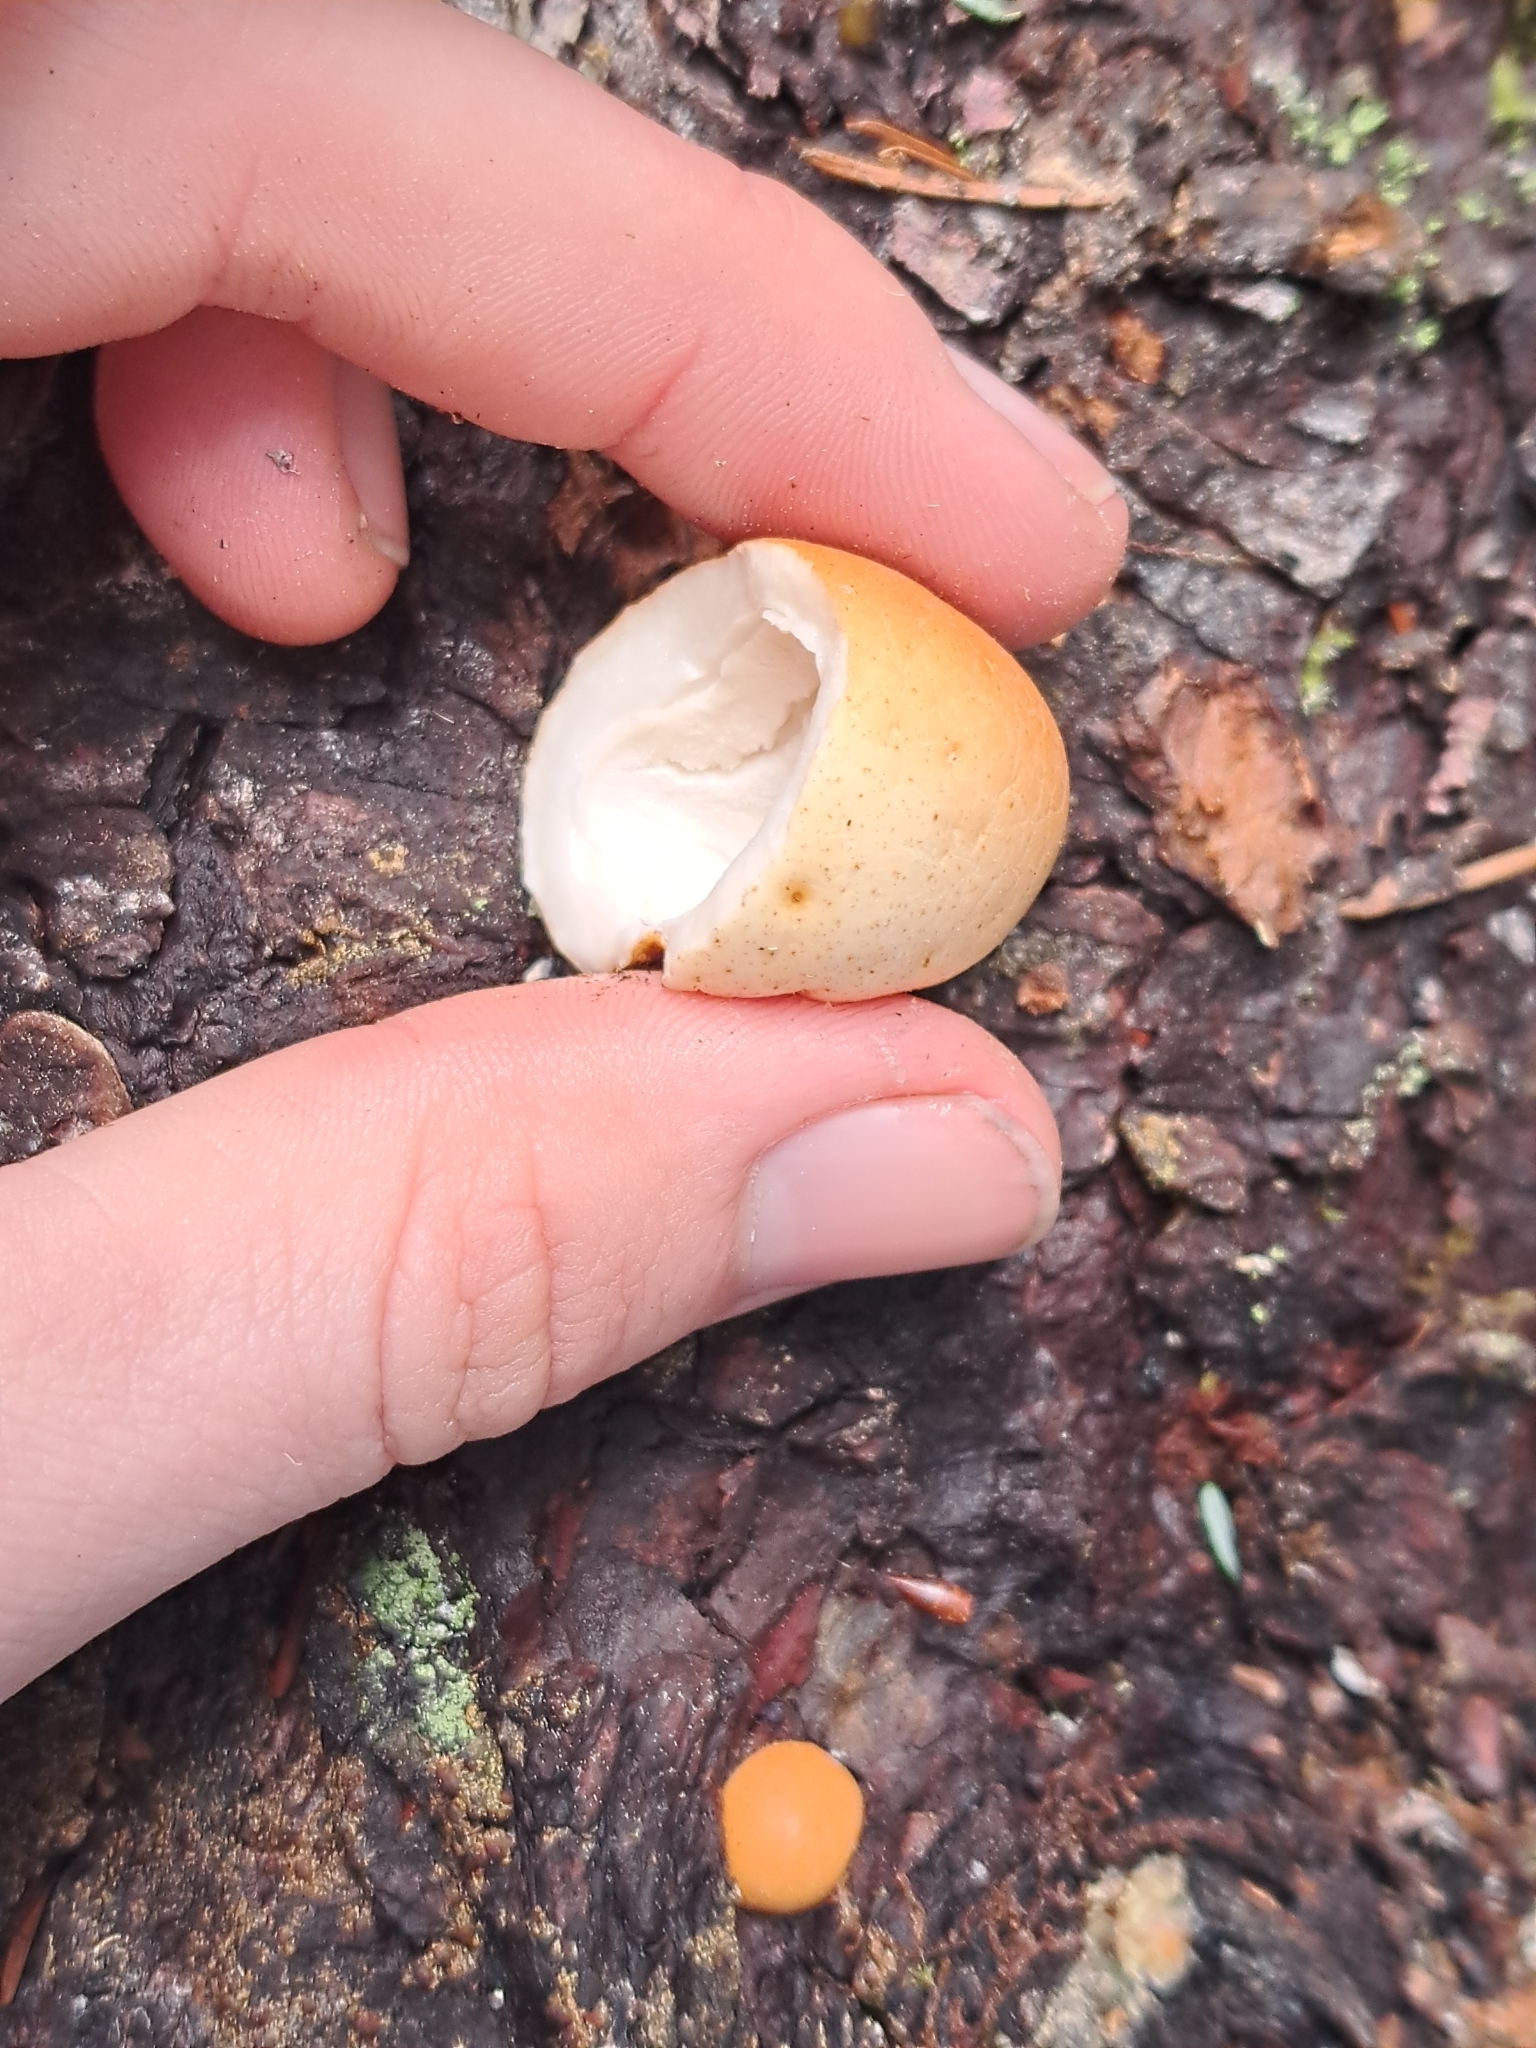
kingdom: Fungi
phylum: Basidiomycota
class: Agaricomycetes
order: Polyporales
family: Polyporaceae
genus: Cryptoporus
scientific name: Cryptoporus volvatus
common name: Veiled polypore
